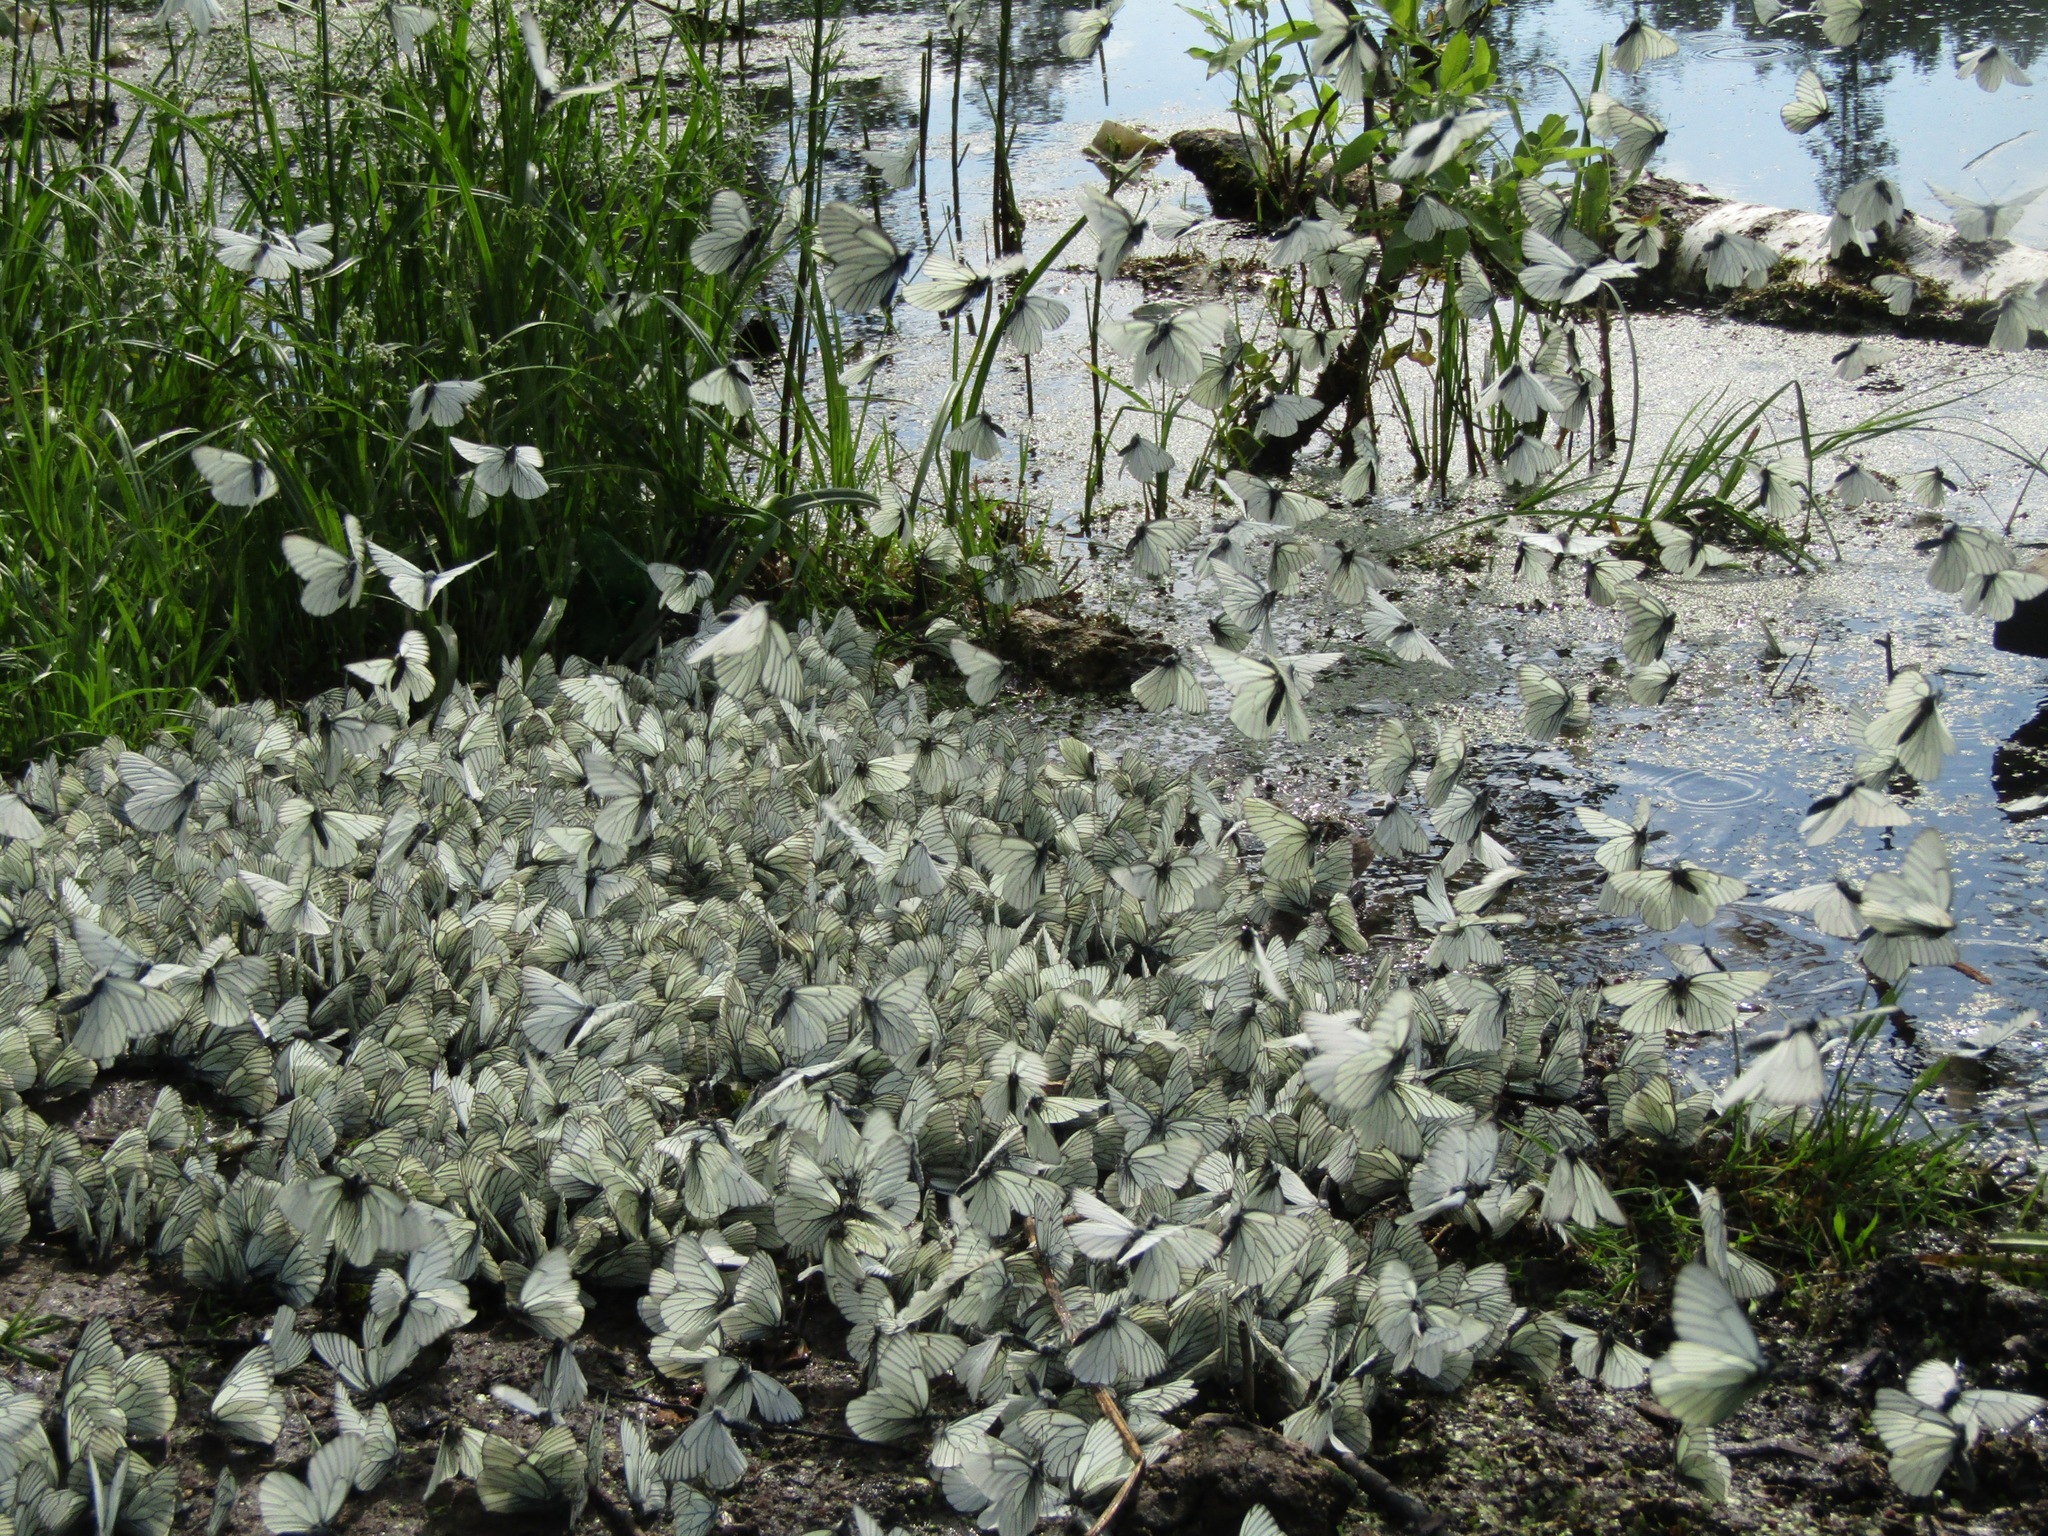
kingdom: Animalia
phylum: Arthropoda
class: Insecta
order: Lepidoptera
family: Pieridae
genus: Aporia
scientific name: Aporia crataegi
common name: Black-veined white
